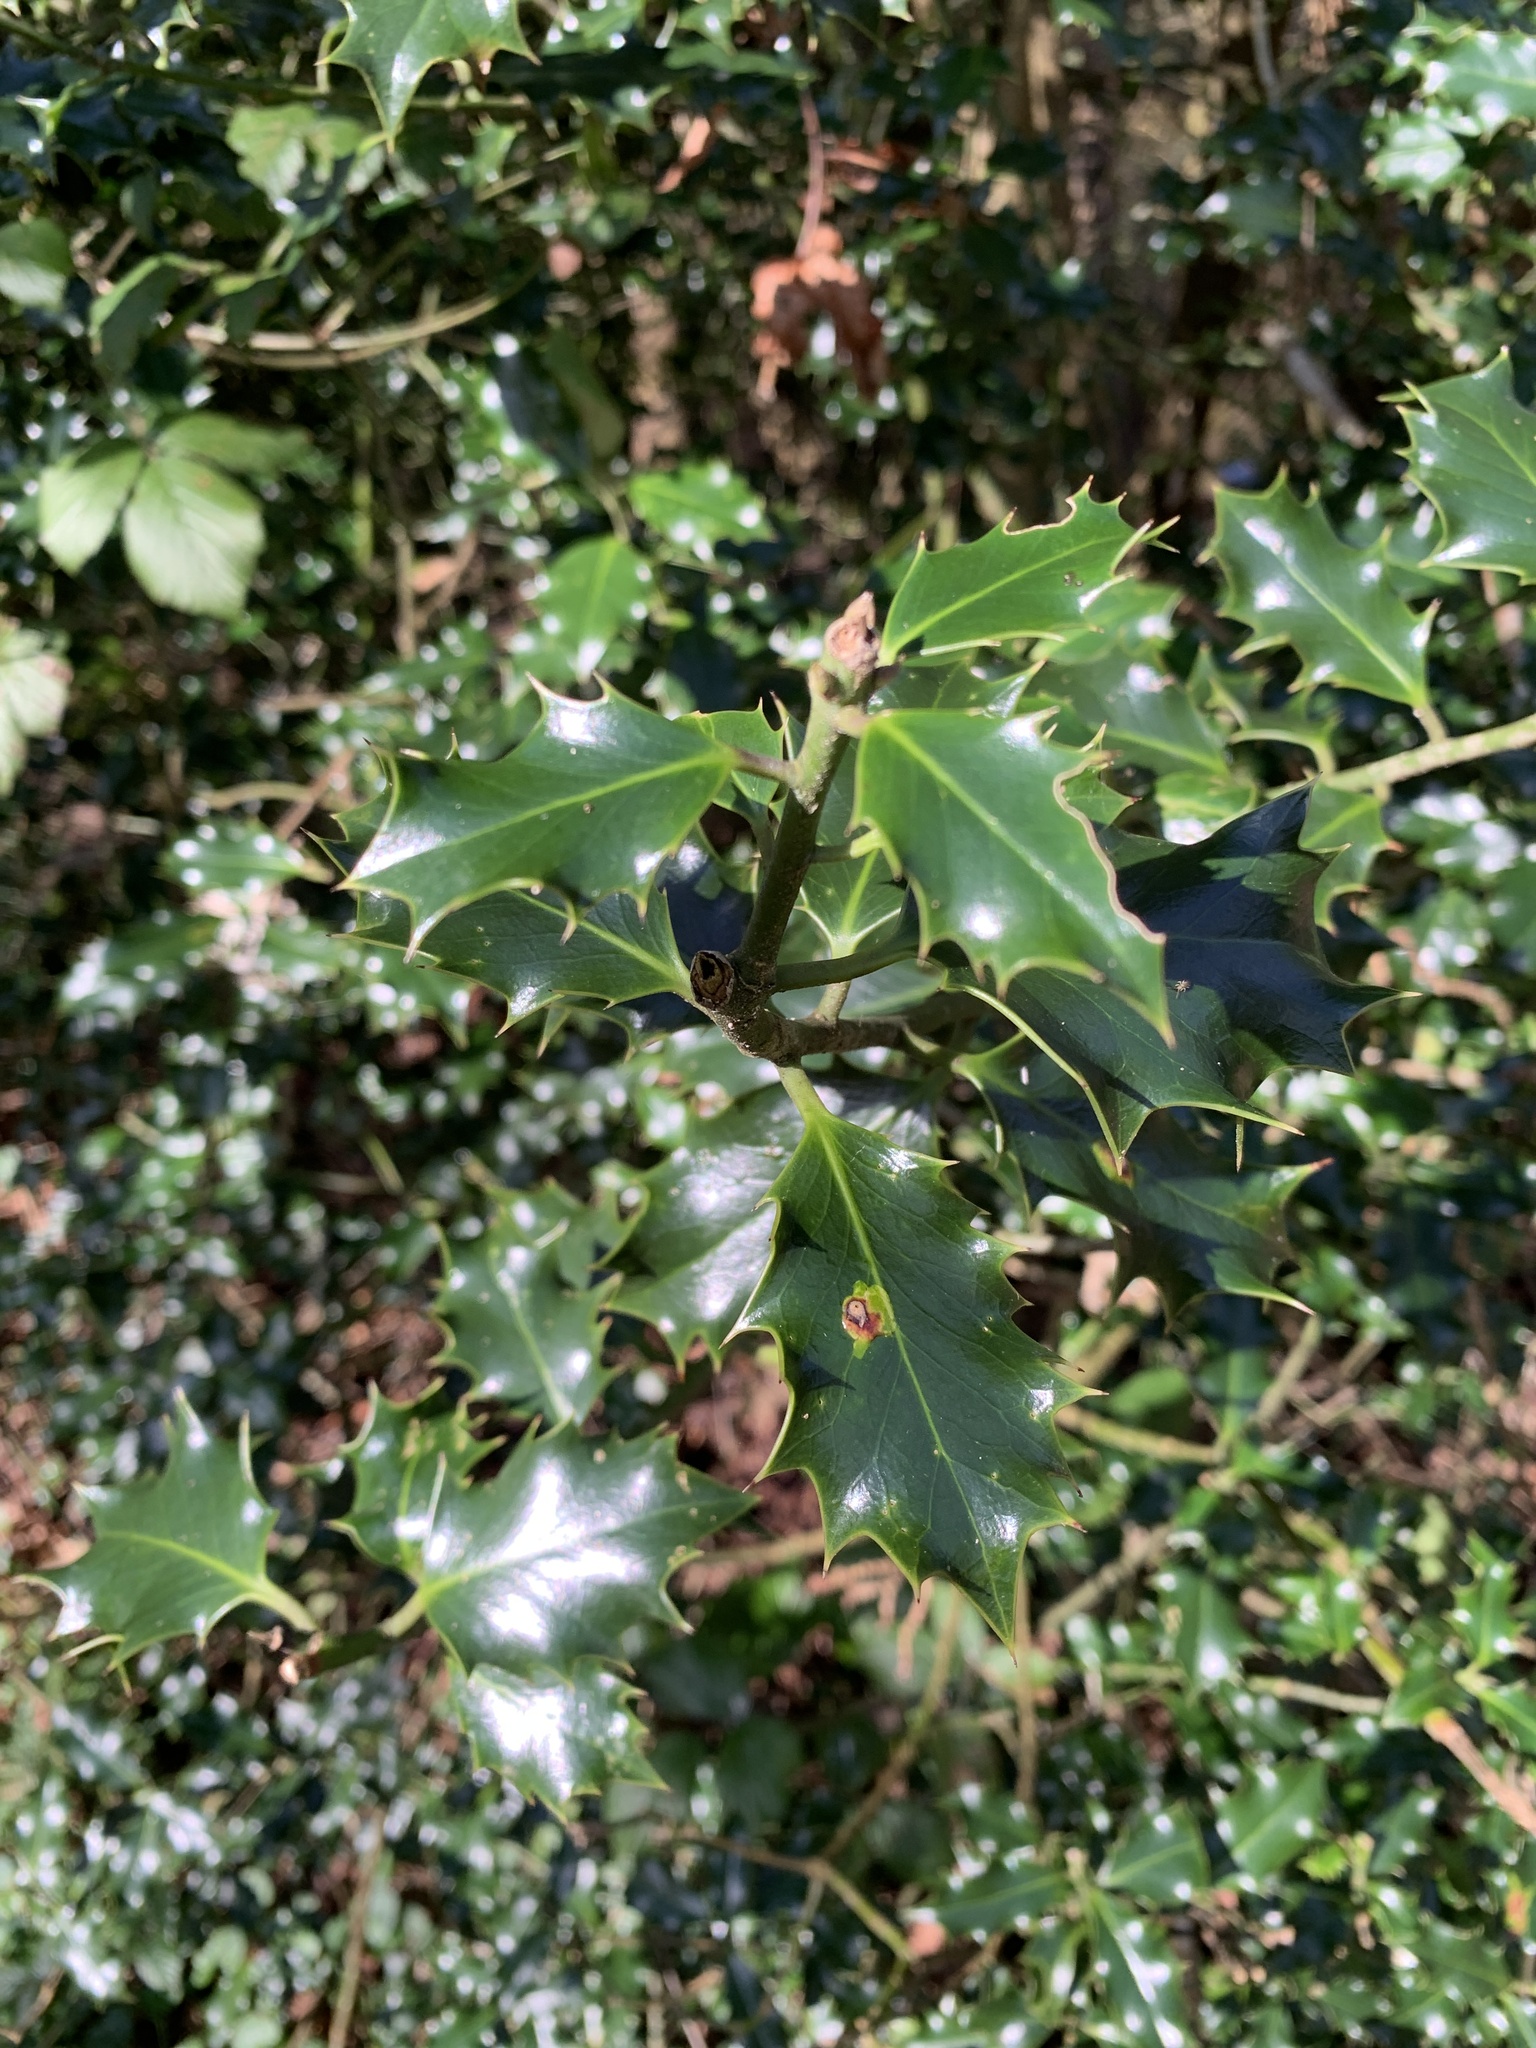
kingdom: Plantae
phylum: Tracheophyta
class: Magnoliopsida
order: Aquifoliales
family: Aquifoliaceae
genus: Ilex
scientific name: Ilex aquifolium
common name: English holly
